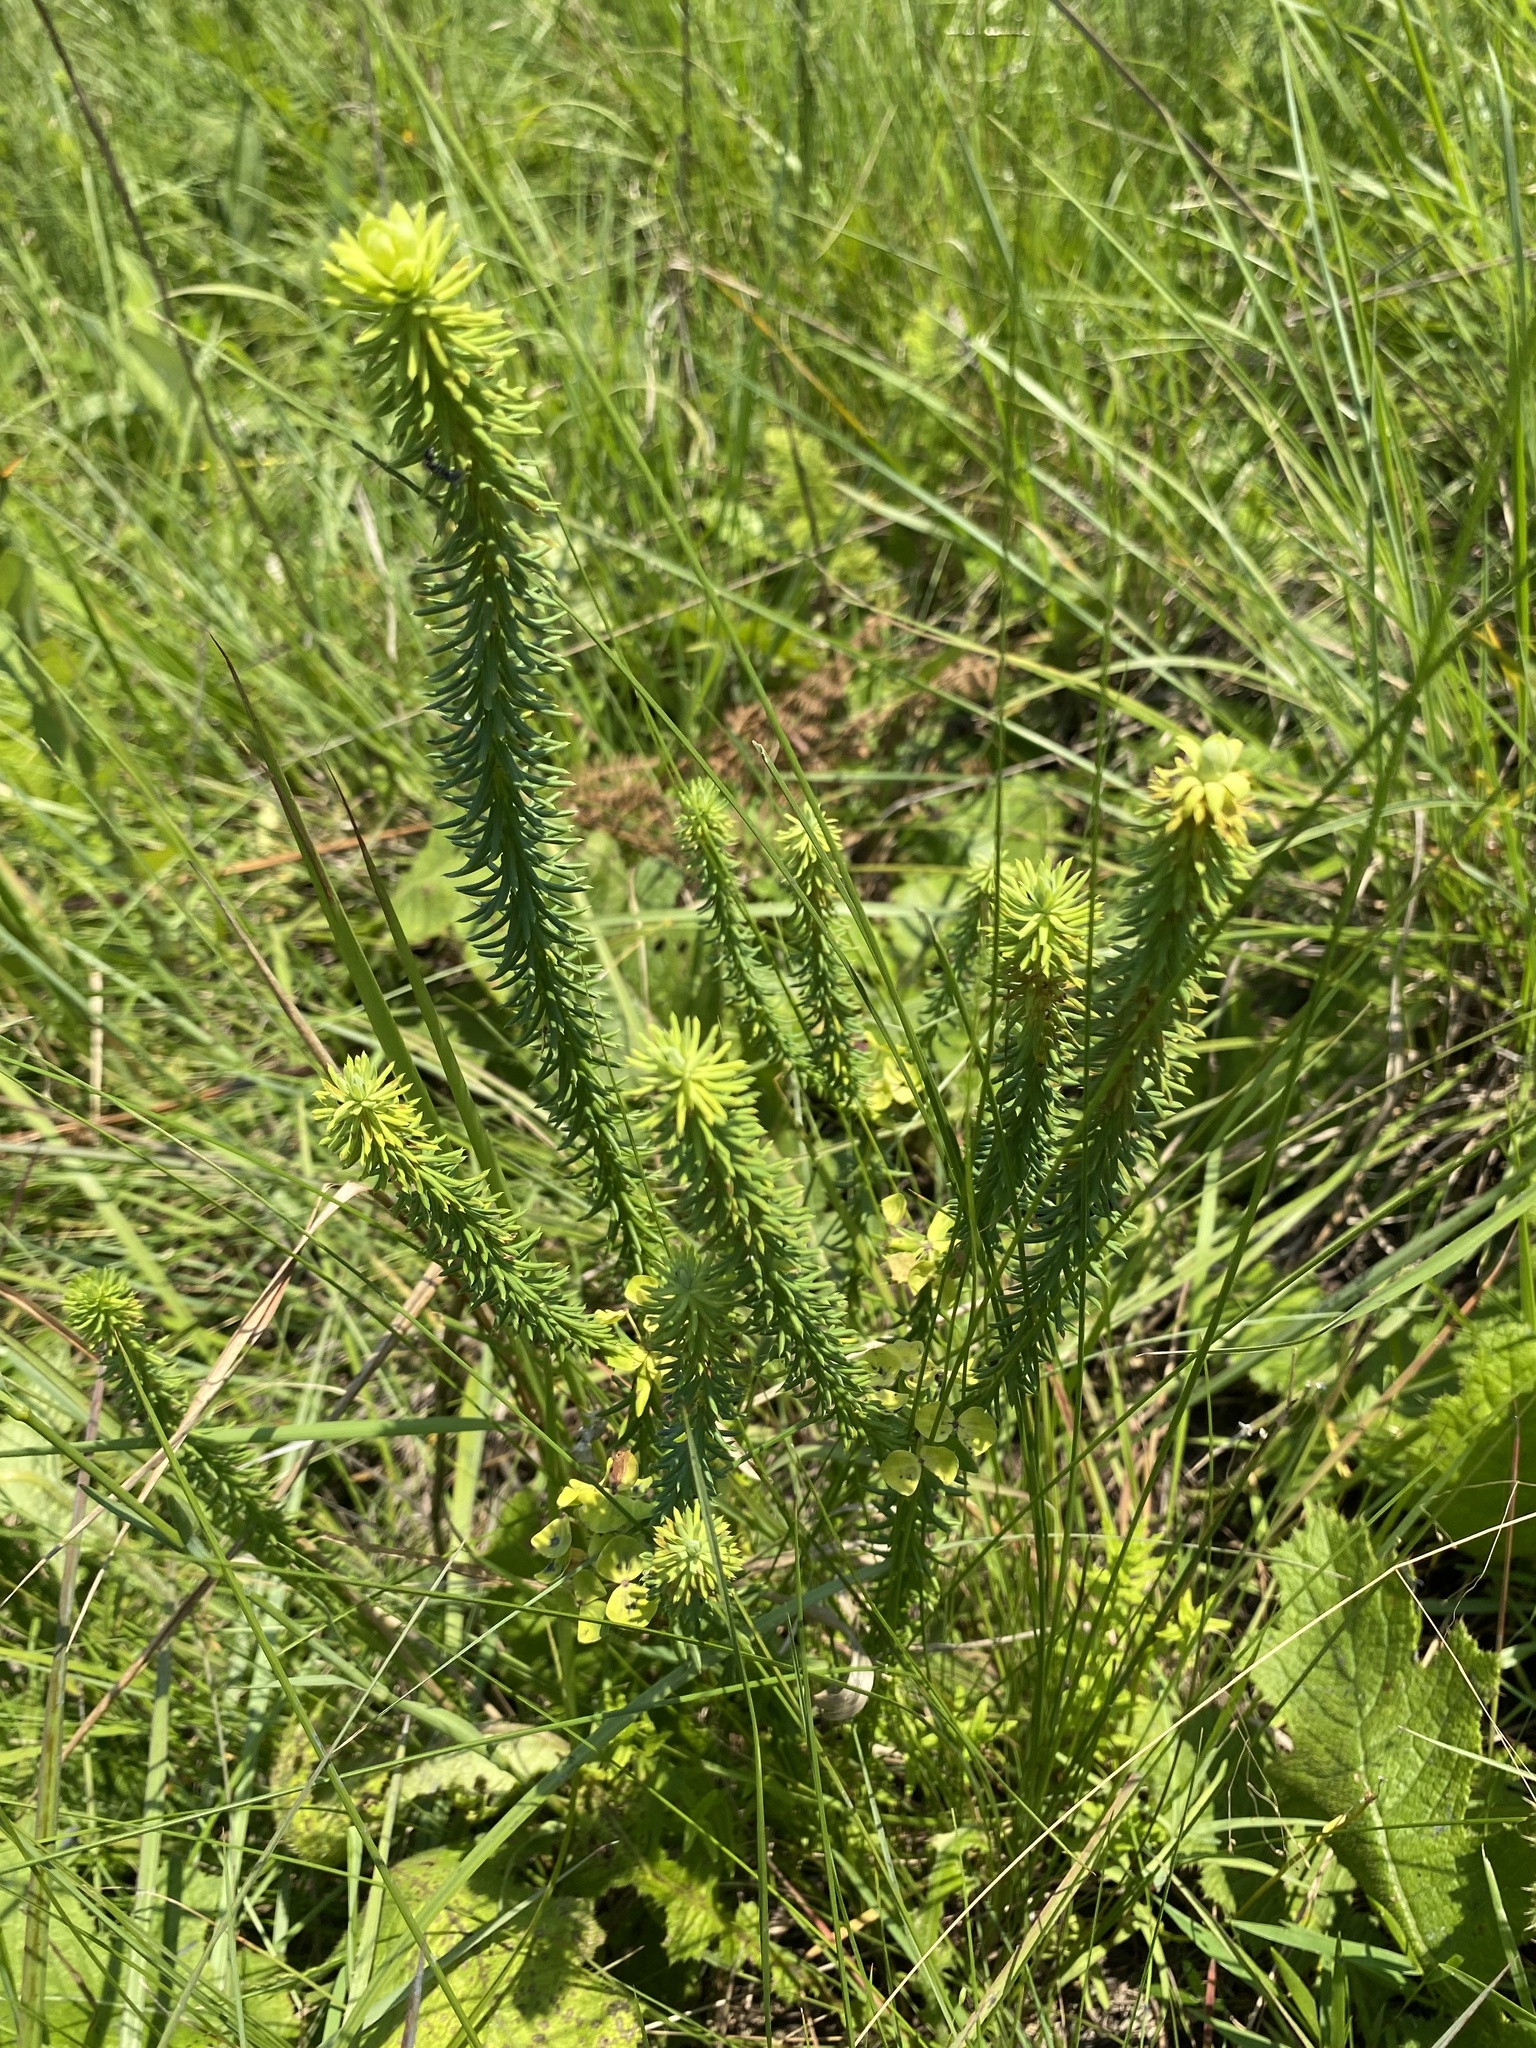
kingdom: Plantae
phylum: Tracheophyta
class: Magnoliopsida
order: Malpighiales
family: Euphorbiaceae
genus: Euphorbia
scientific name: Euphorbia natalensis
